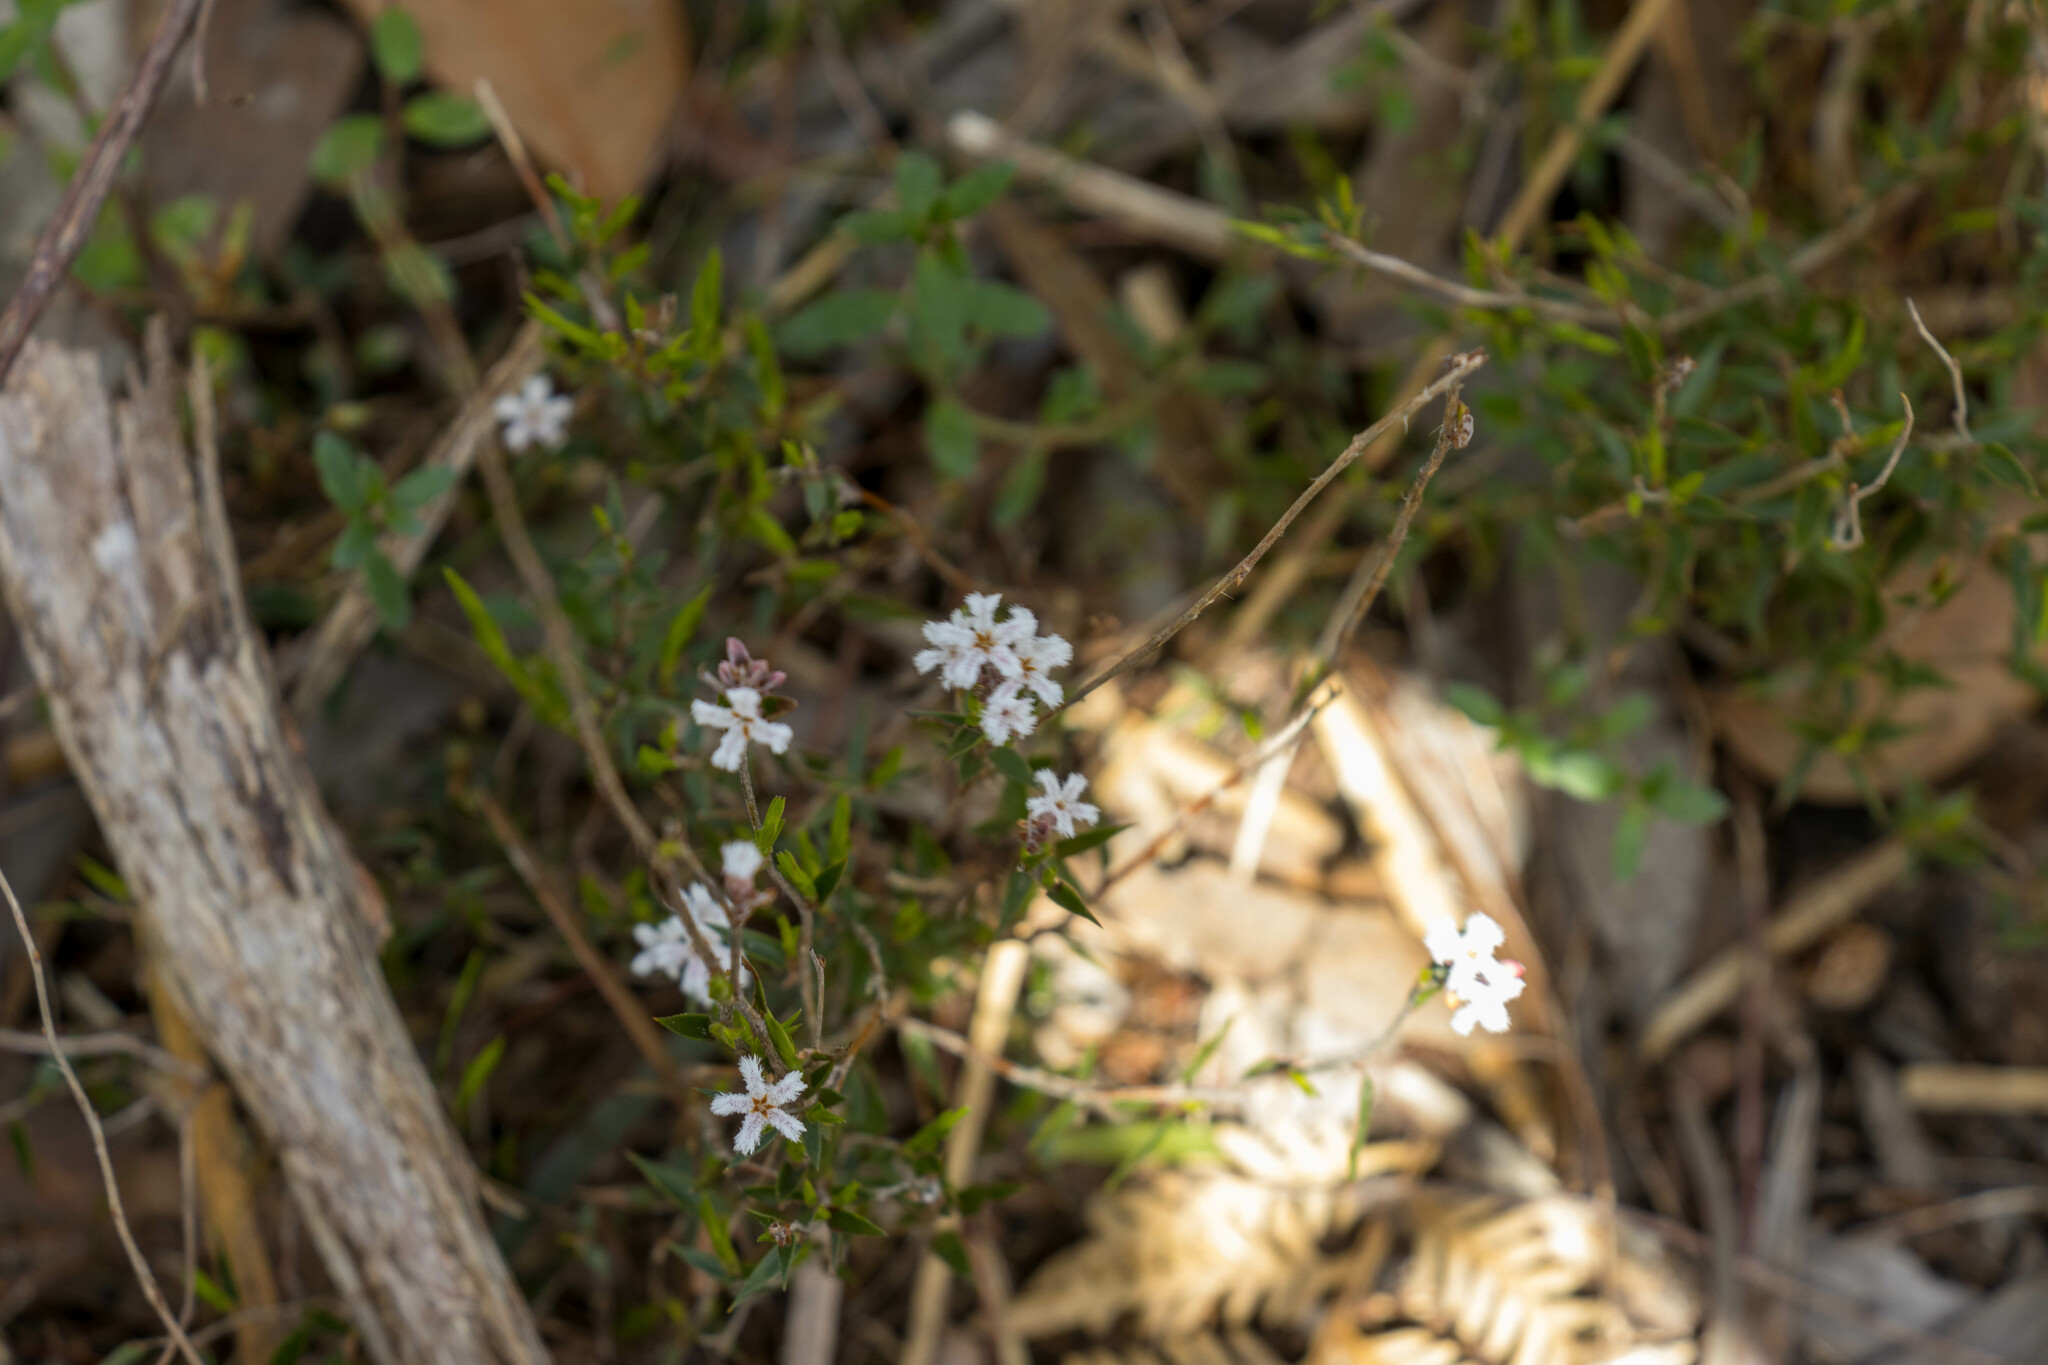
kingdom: Plantae
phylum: Tracheophyta
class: Magnoliopsida
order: Ericales
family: Ericaceae
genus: Leucopogon
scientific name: Leucopogon virgatus
